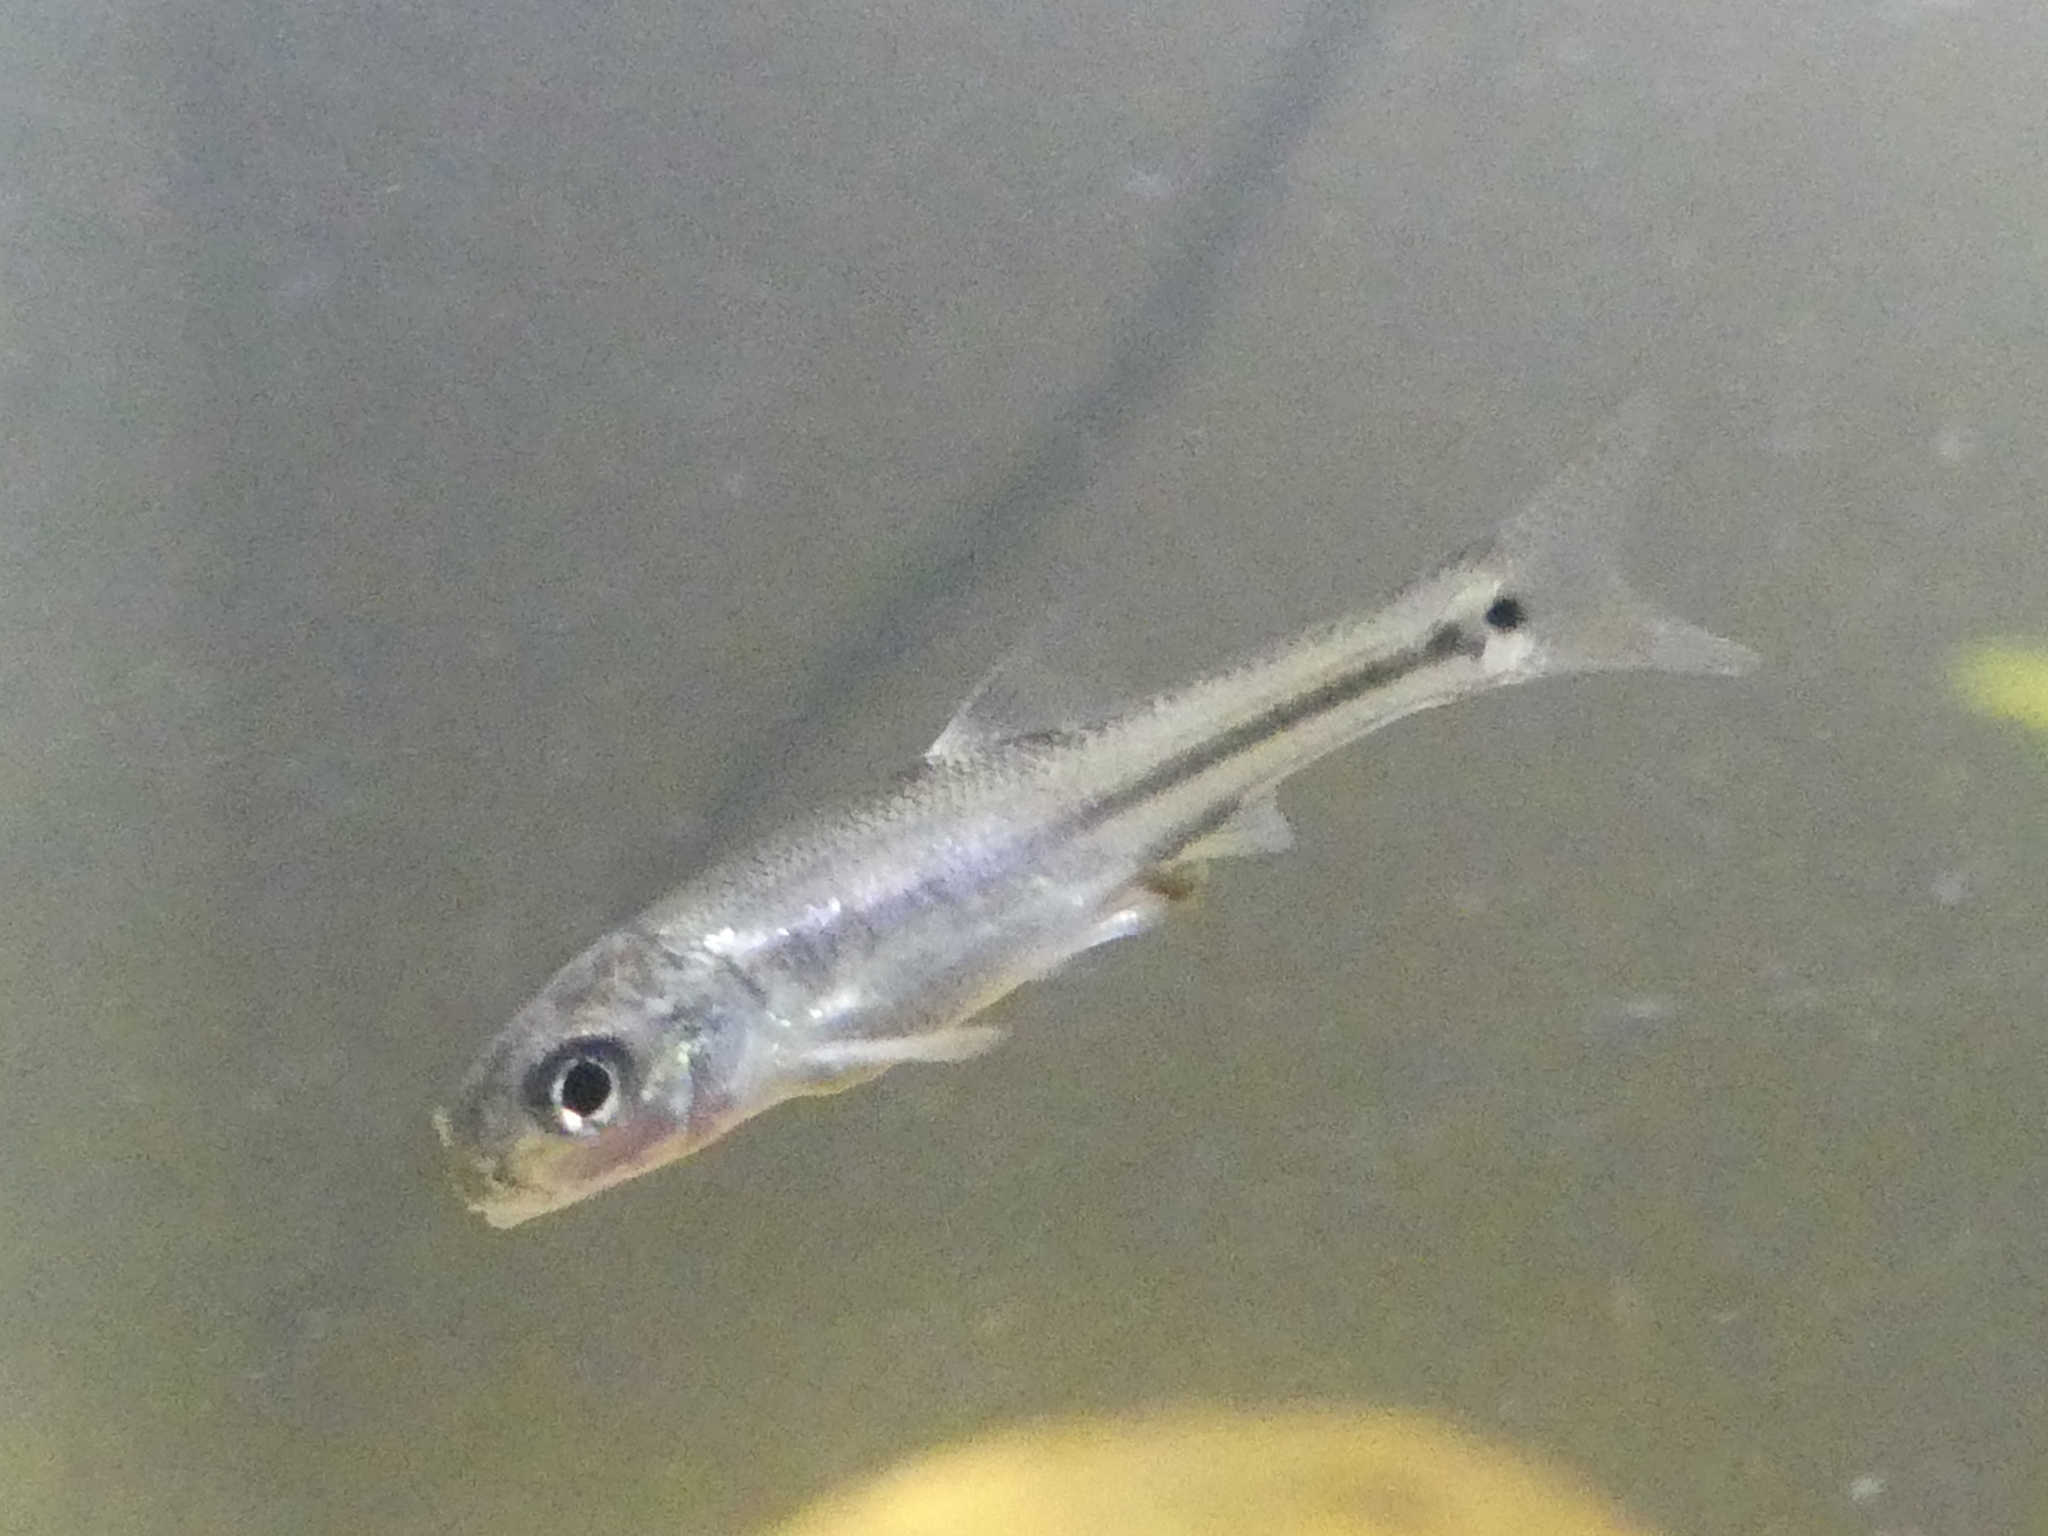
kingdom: Animalia
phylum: Chordata
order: Cypriniformes
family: Cyprinidae
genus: Pimephales
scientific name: Pimephales vigilax
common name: Bullhead minnow
